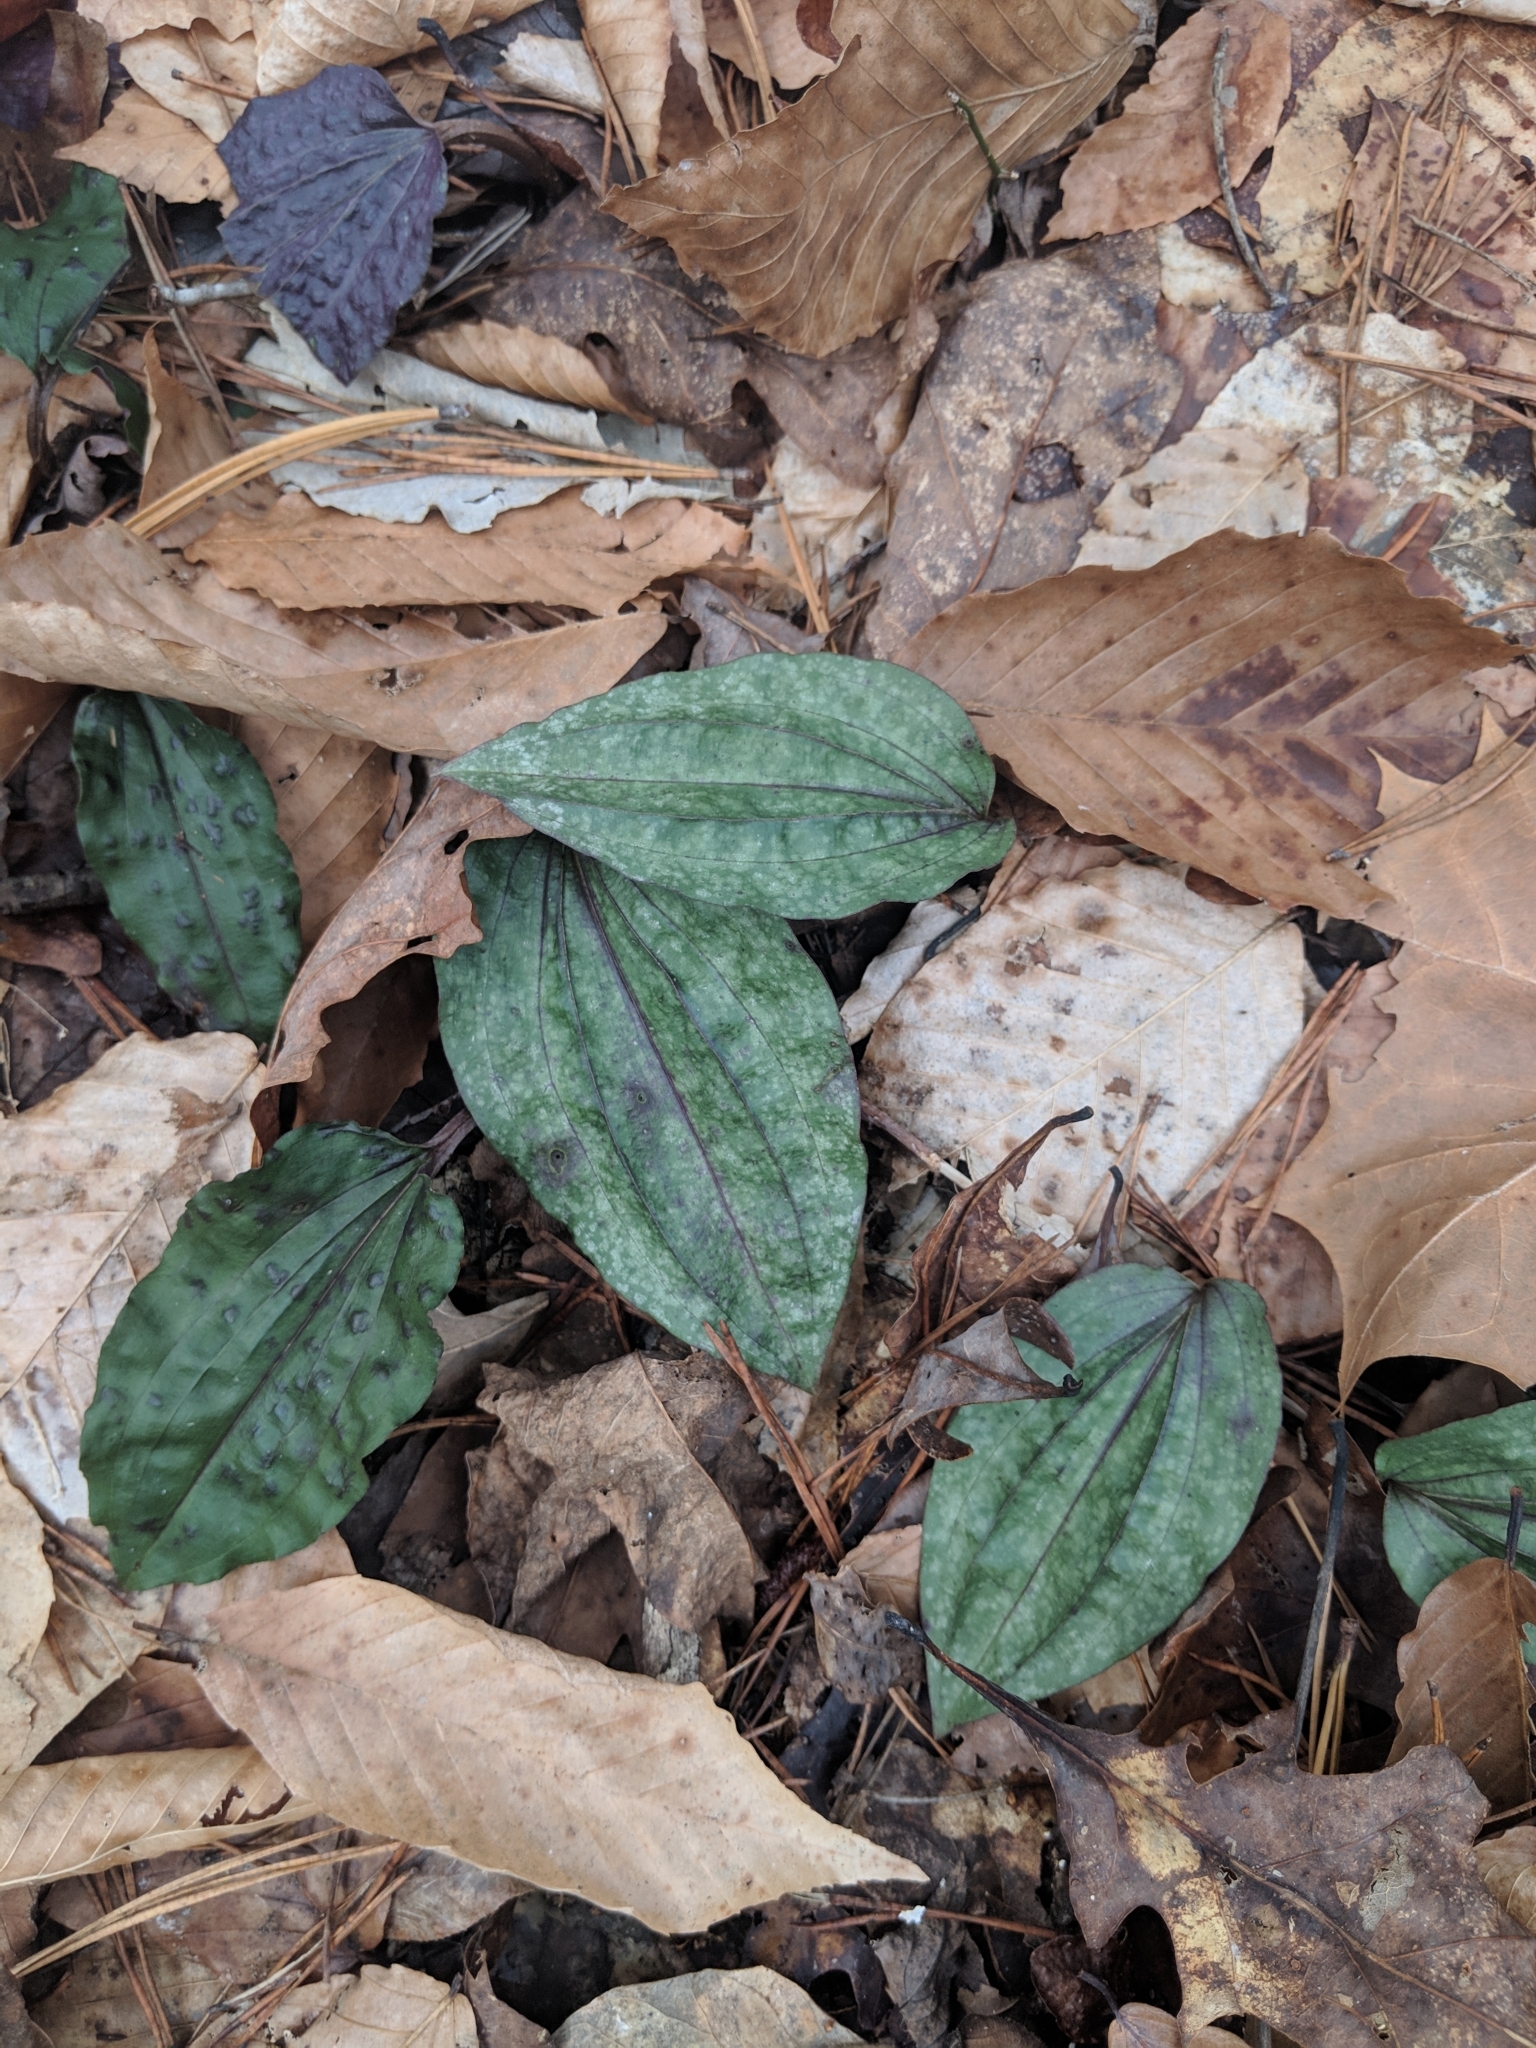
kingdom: Plantae
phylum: Tracheophyta
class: Liliopsida
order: Asparagales
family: Orchidaceae
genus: Tipularia
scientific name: Tipularia discolor
